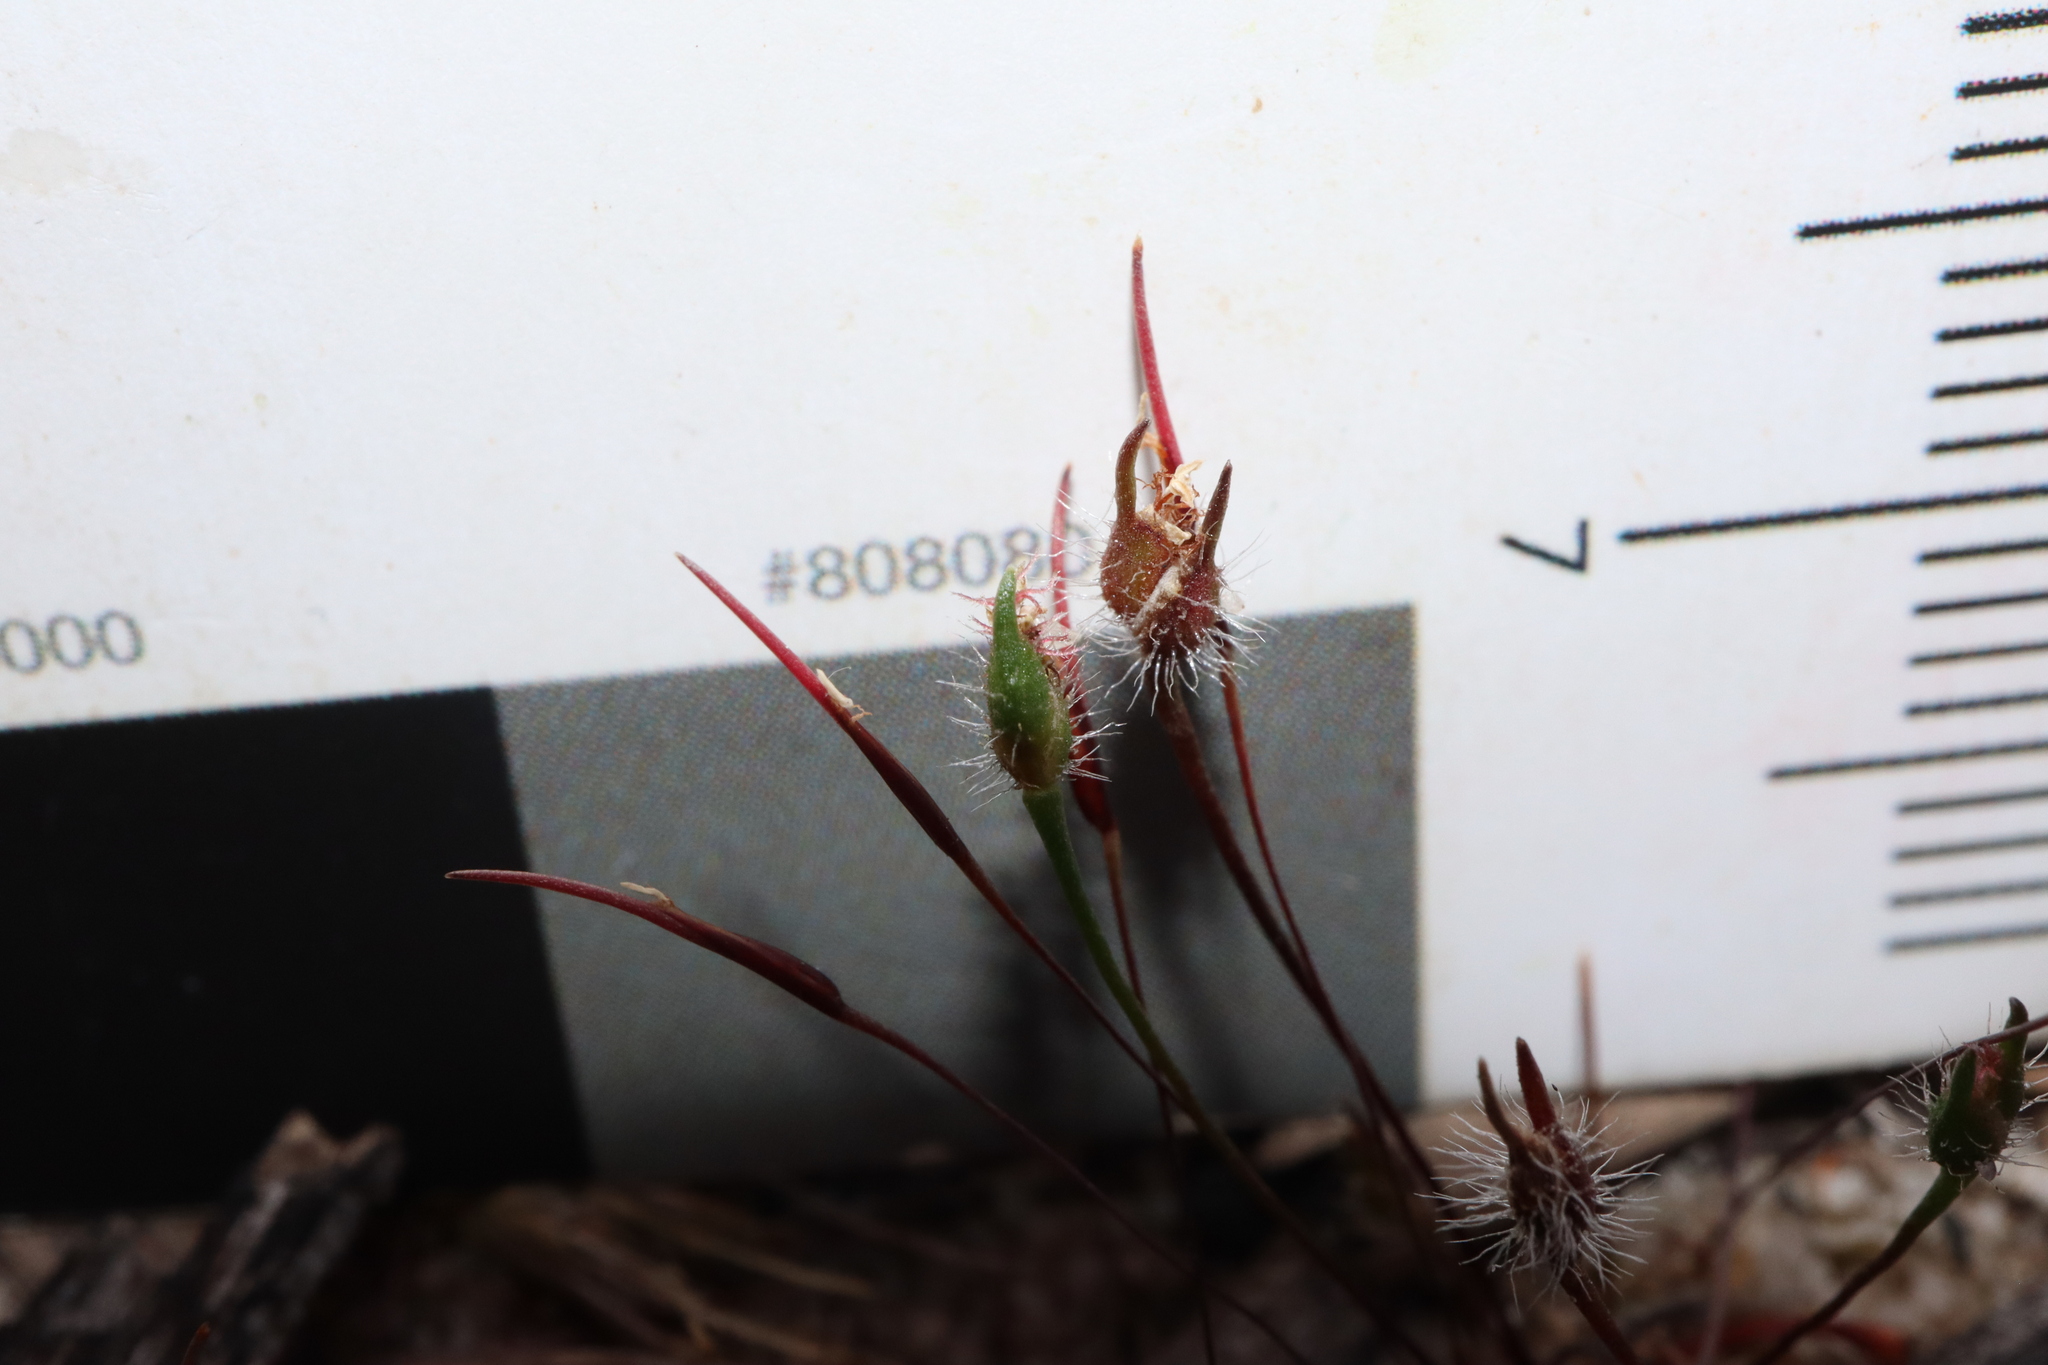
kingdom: Plantae
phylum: Tracheophyta
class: Liliopsida
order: Poales
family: Restionaceae
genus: Centrolepis
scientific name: Centrolepis strigosa
